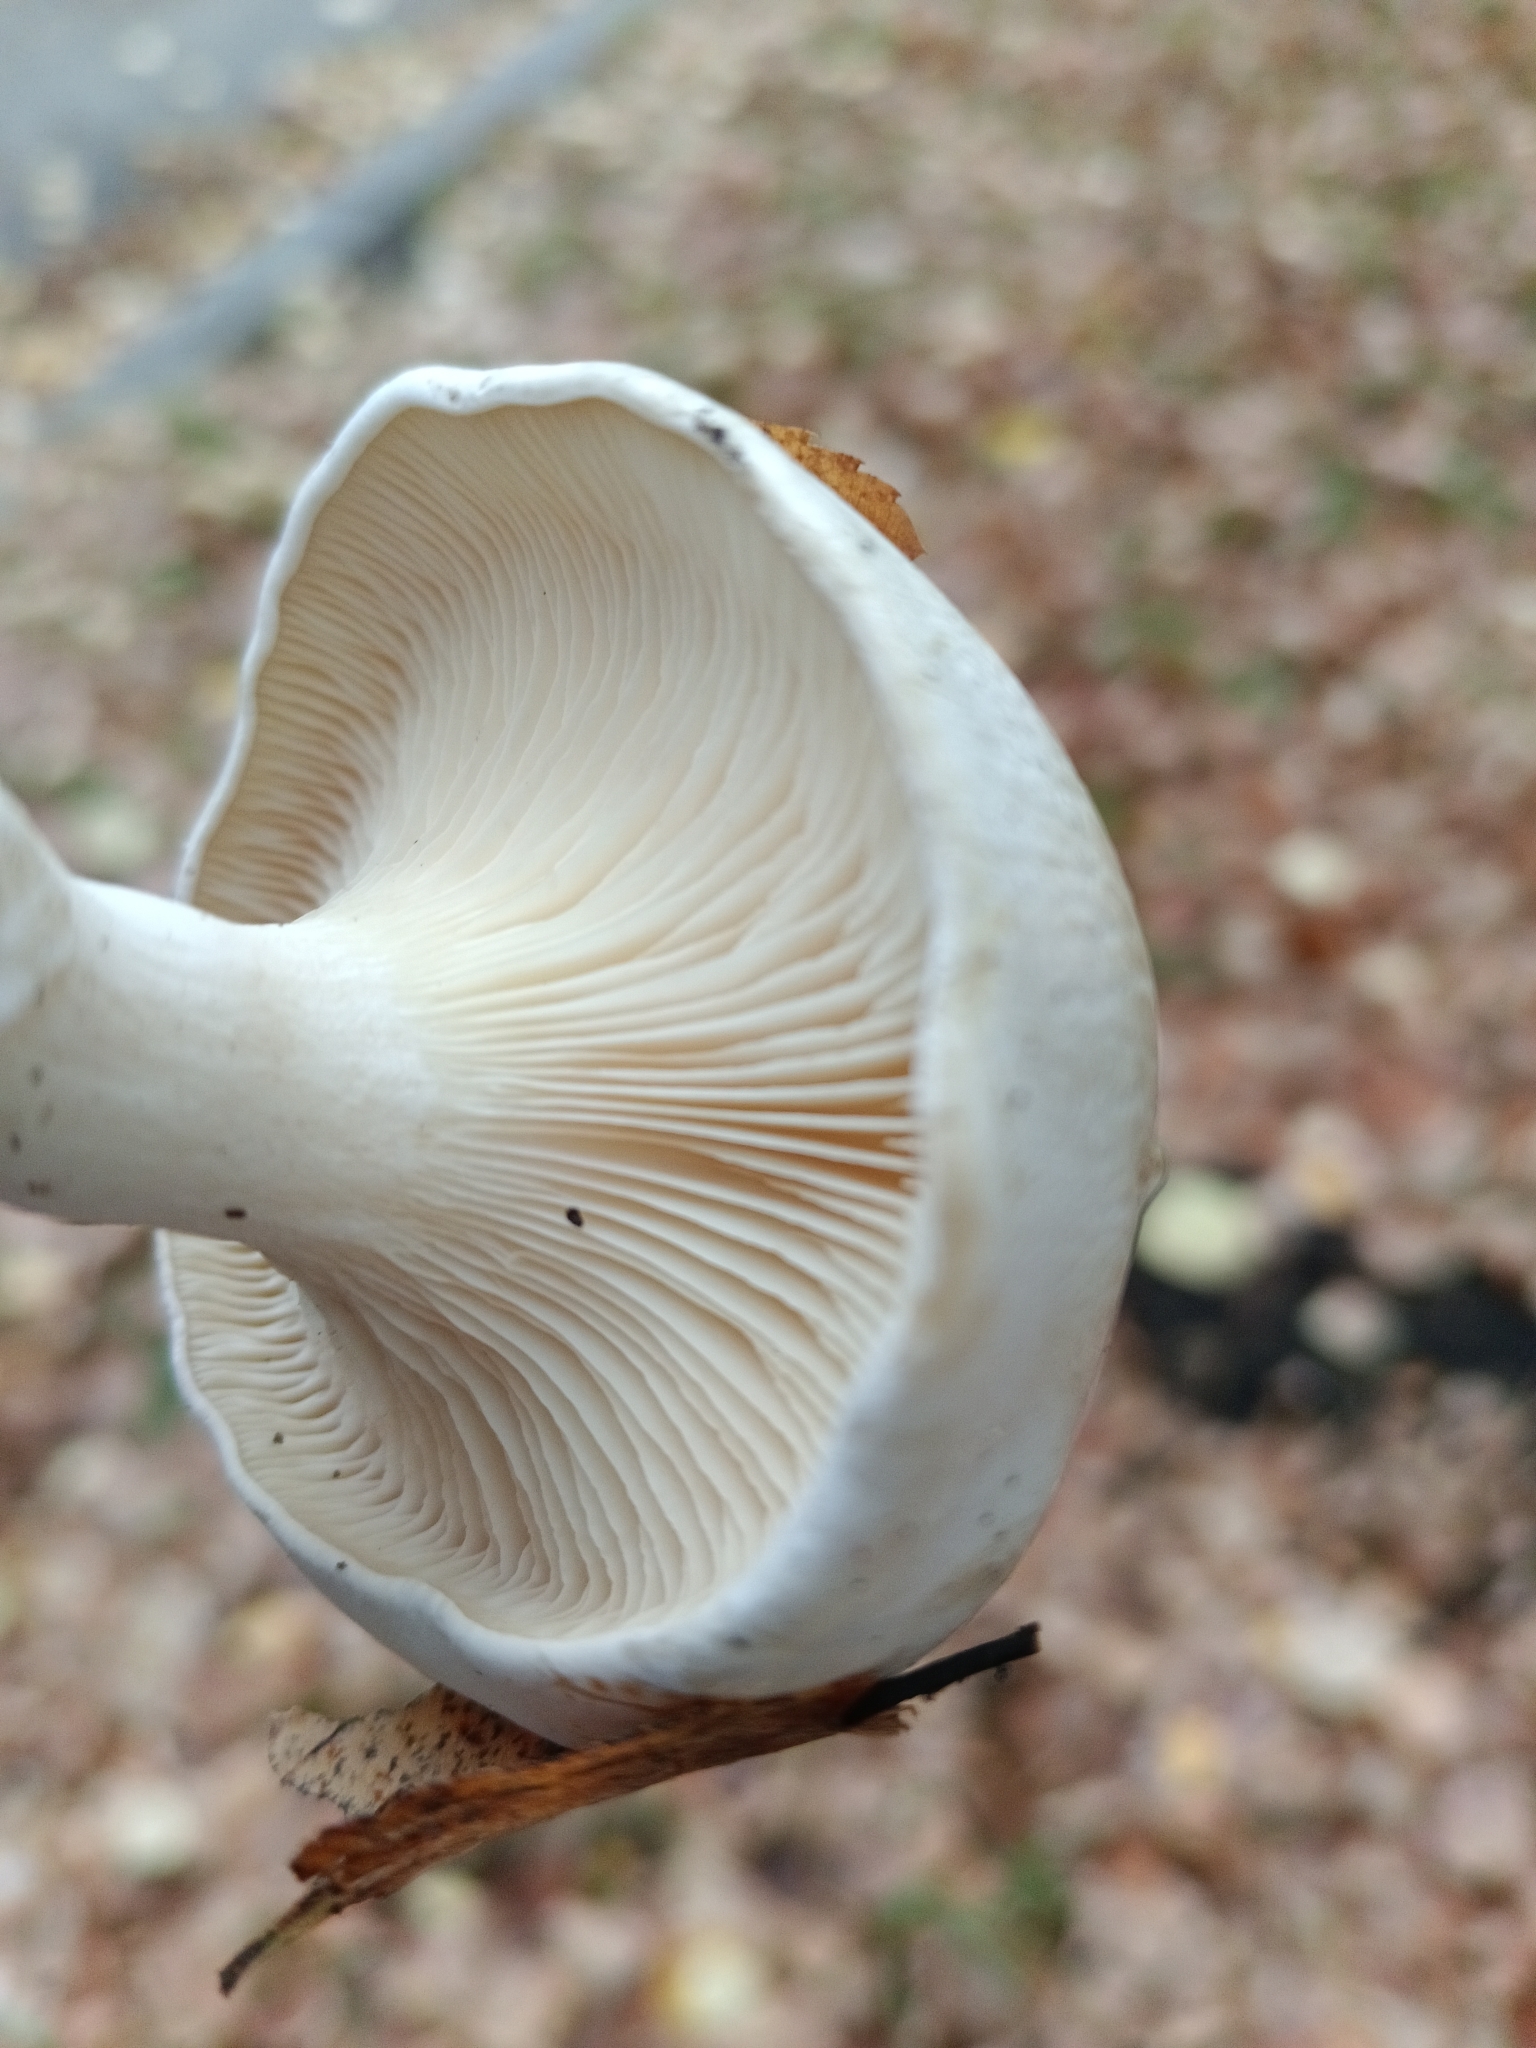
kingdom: Fungi
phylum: Basidiomycota
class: Agaricomycetes
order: Agaricales
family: Entolomataceae
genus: Clitopilus
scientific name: Clitopilus prunulus
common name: The miller
